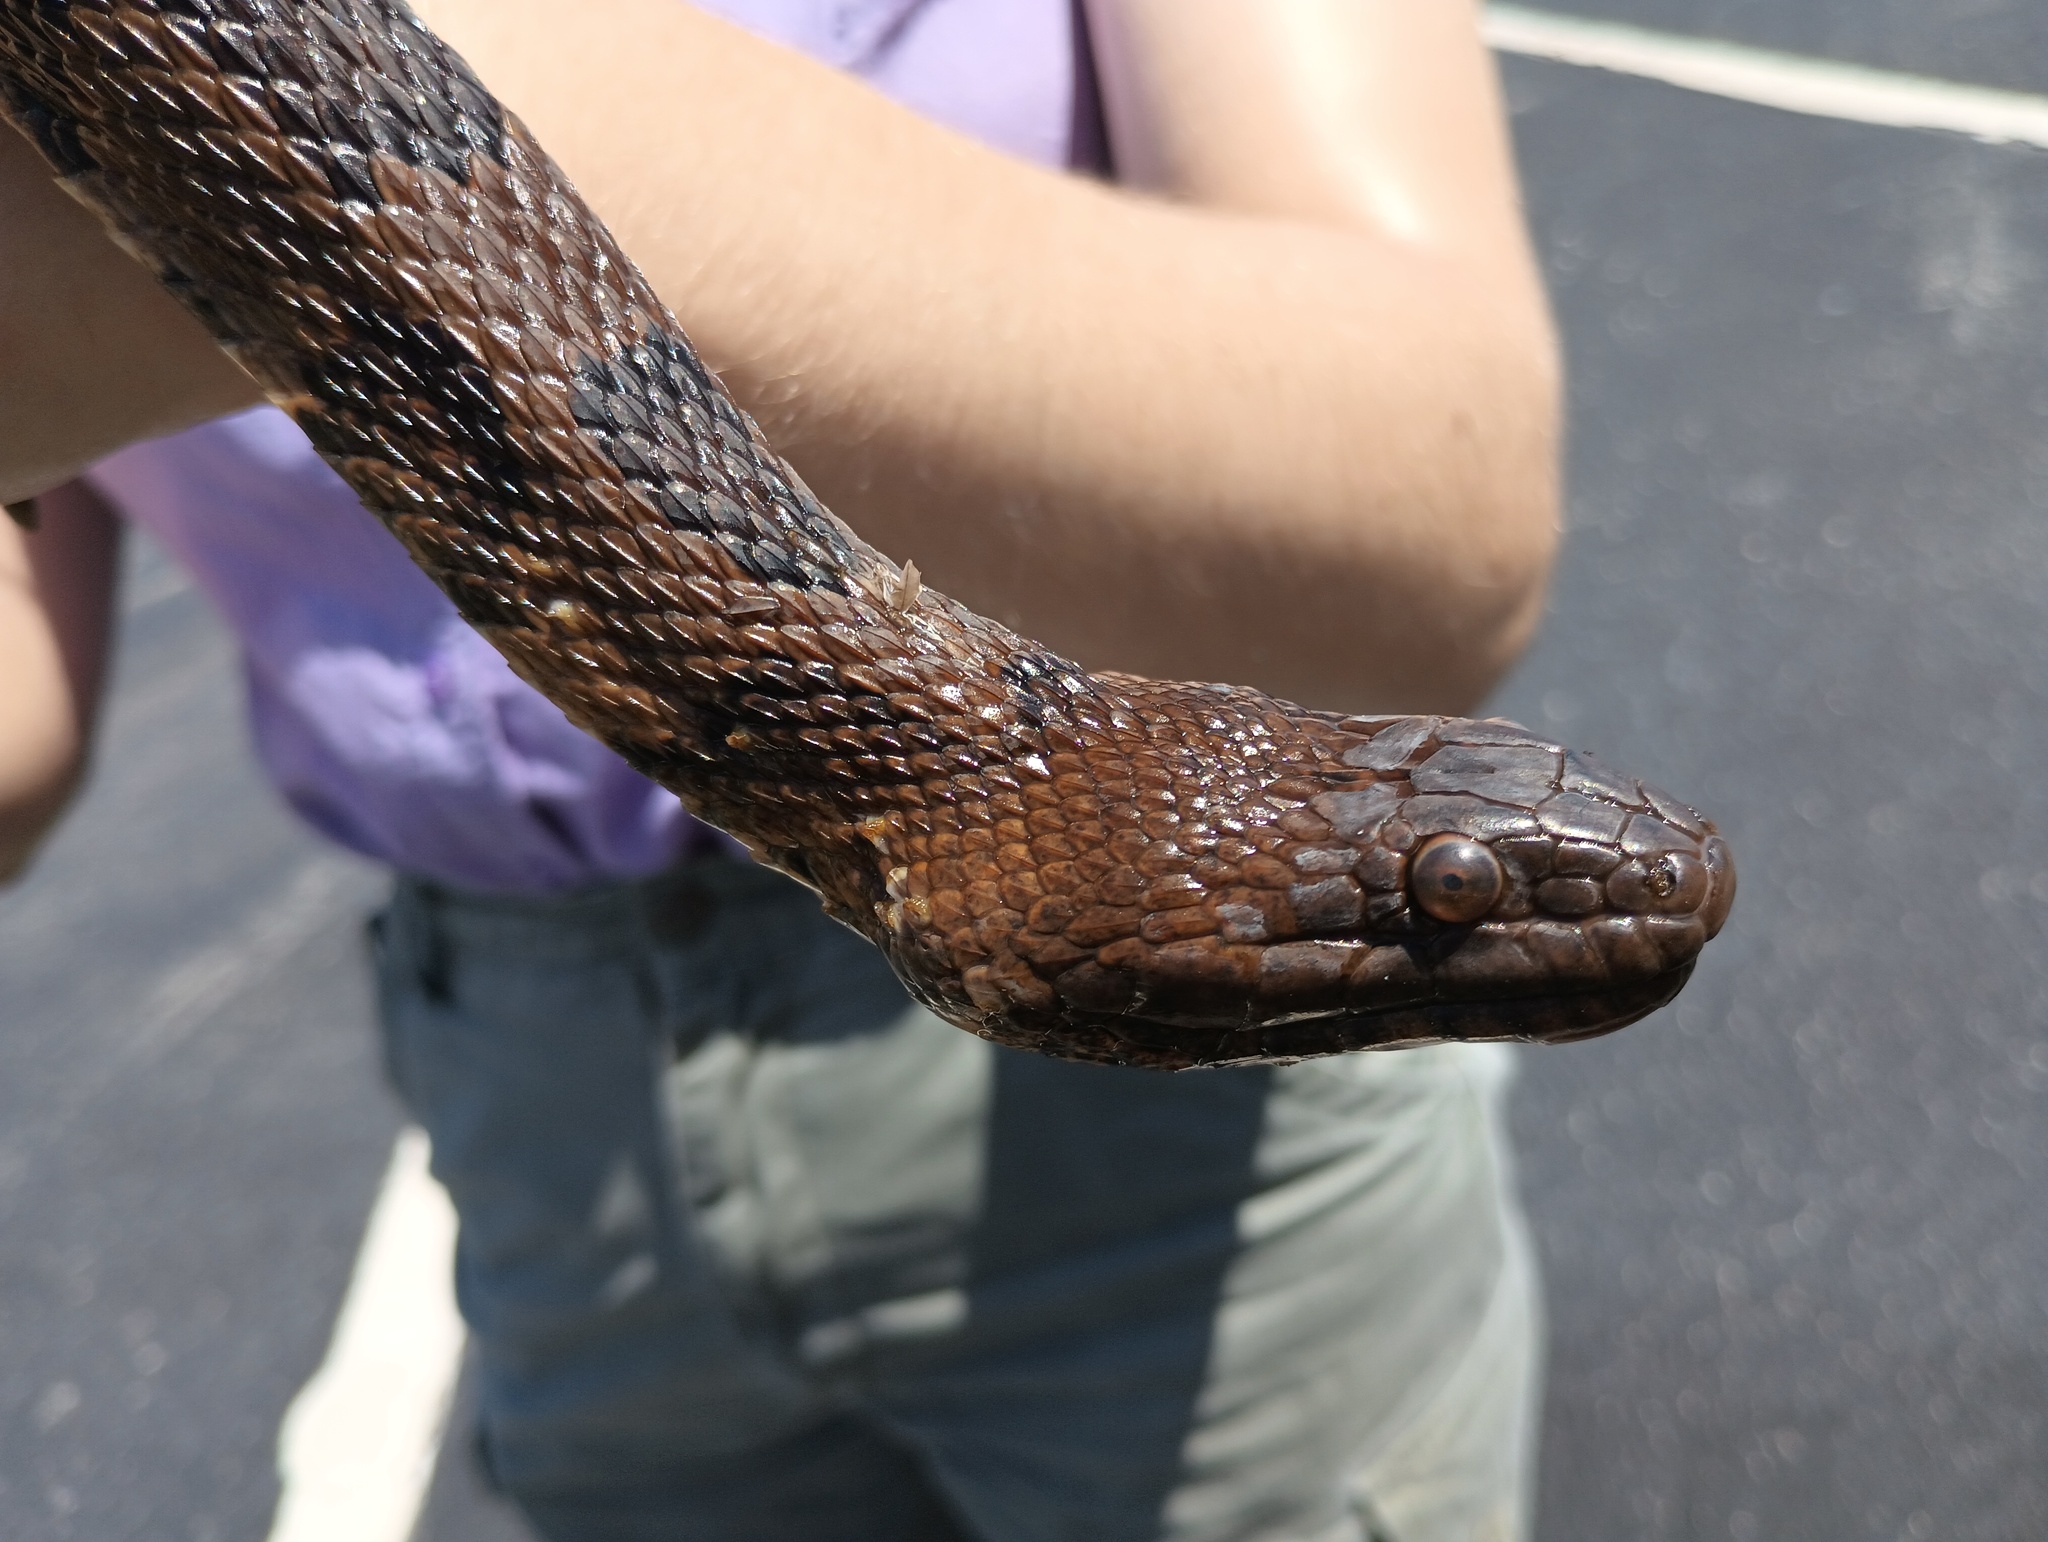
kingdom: Animalia
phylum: Chordata
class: Squamata
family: Colubridae
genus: Nerodia
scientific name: Nerodia taxispilota
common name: Brown water snake
